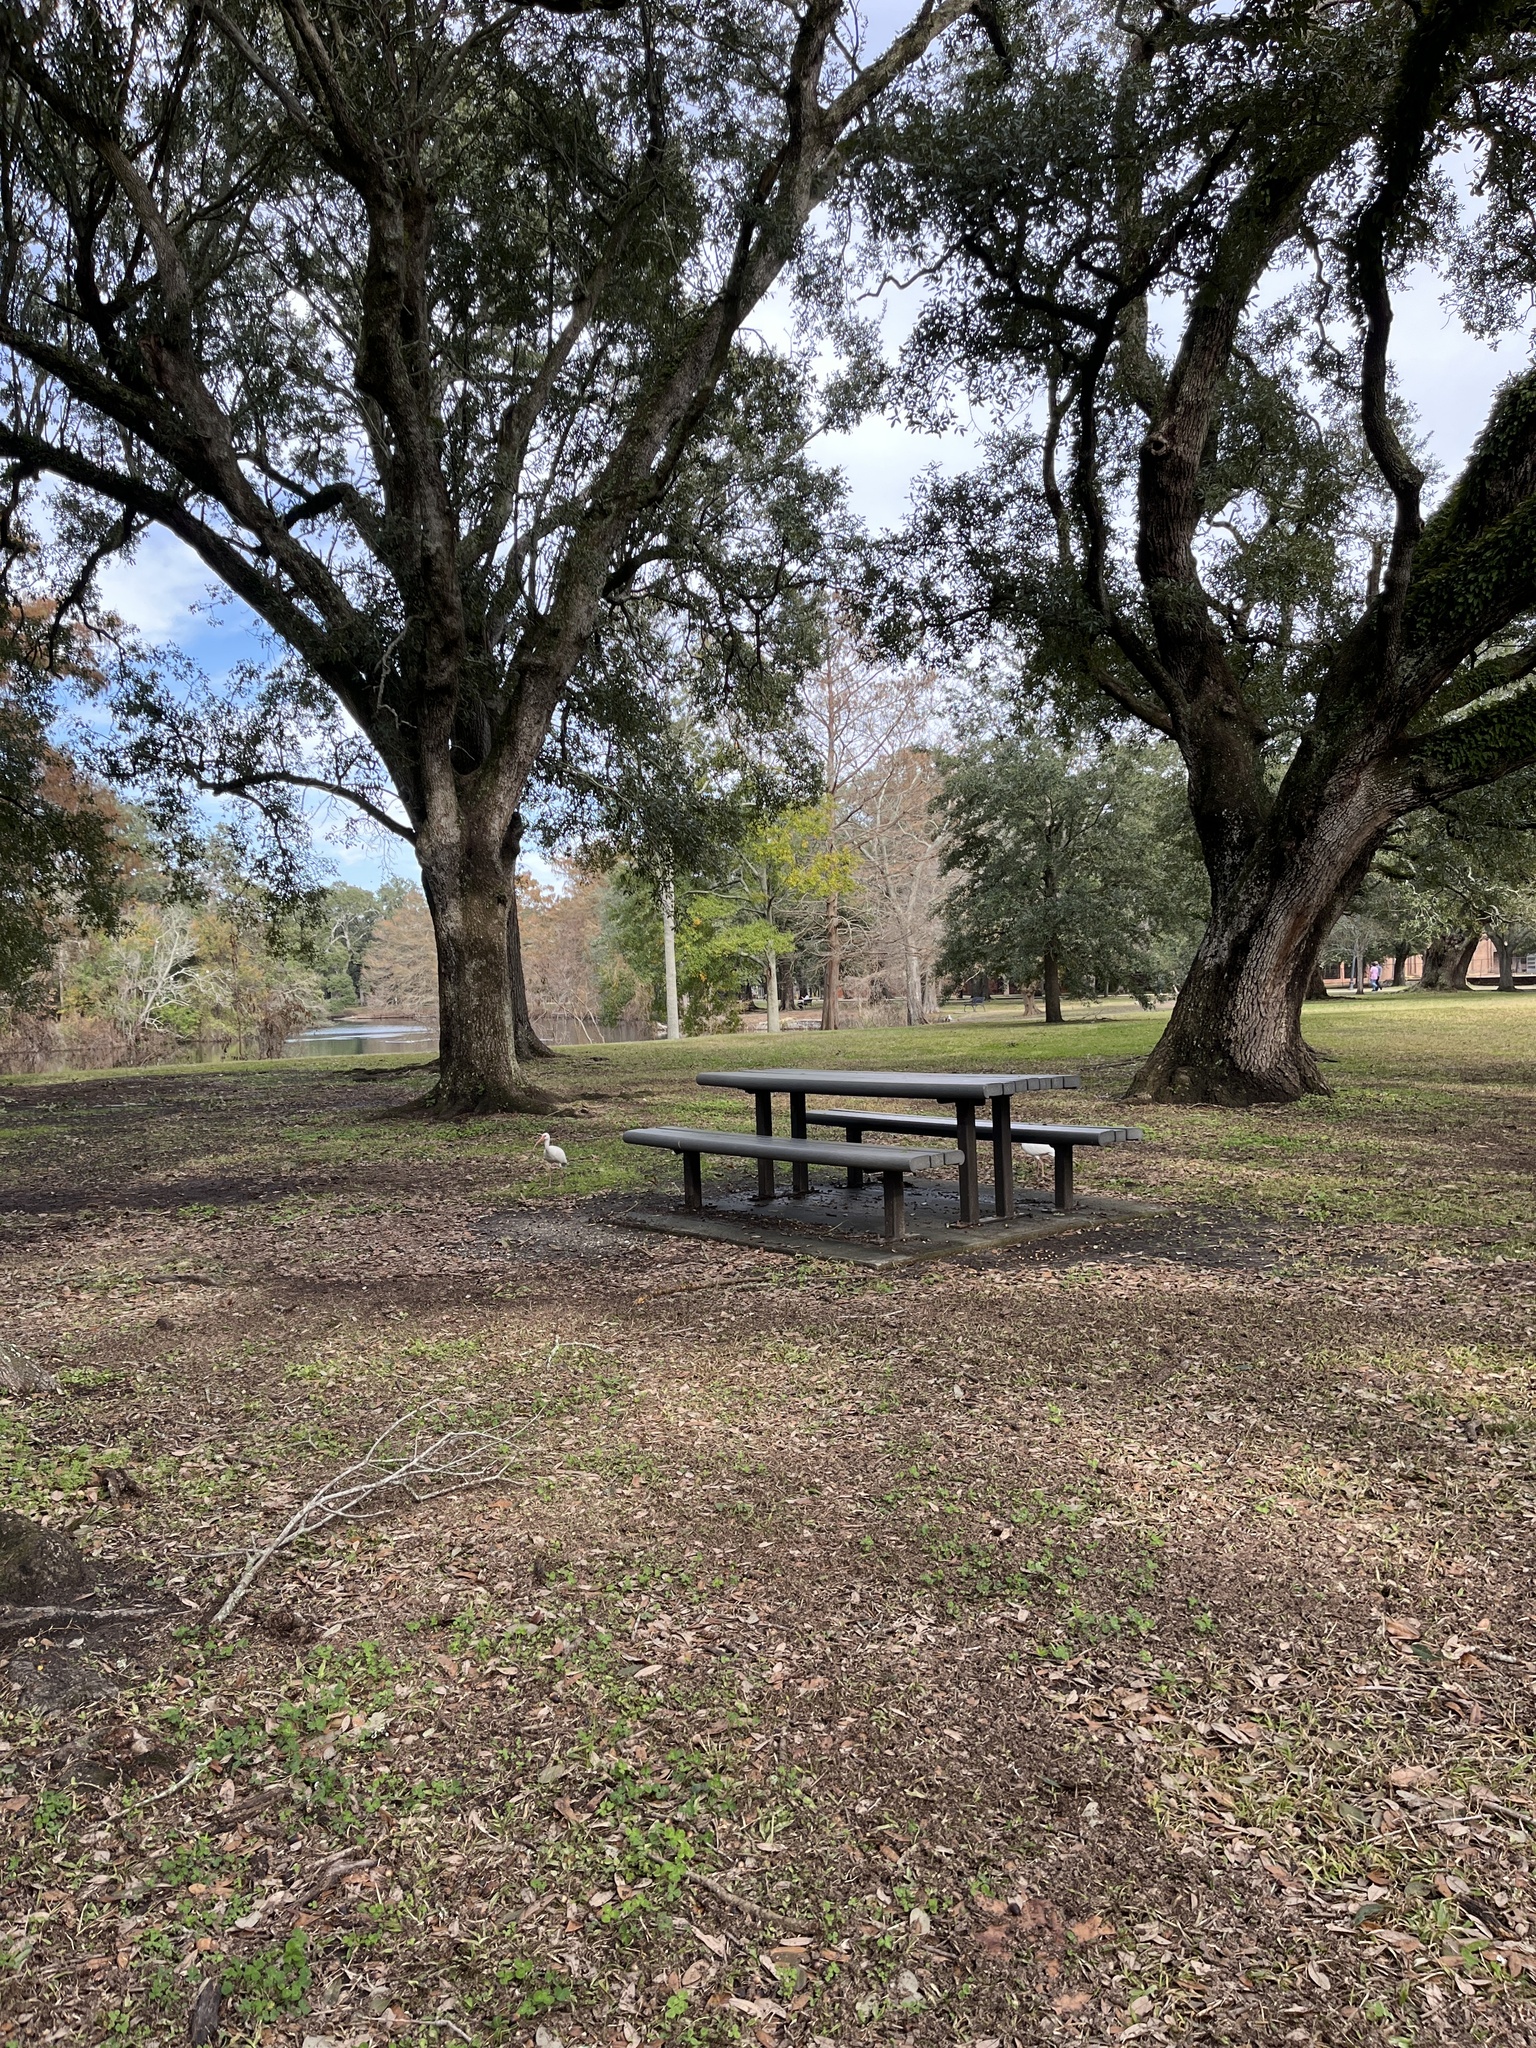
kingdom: Animalia
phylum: Chordata
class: Aves
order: Pelecaniformes
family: Threskiornithidae
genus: Eudocimus
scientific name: Eudocimus albus
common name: White ibis
